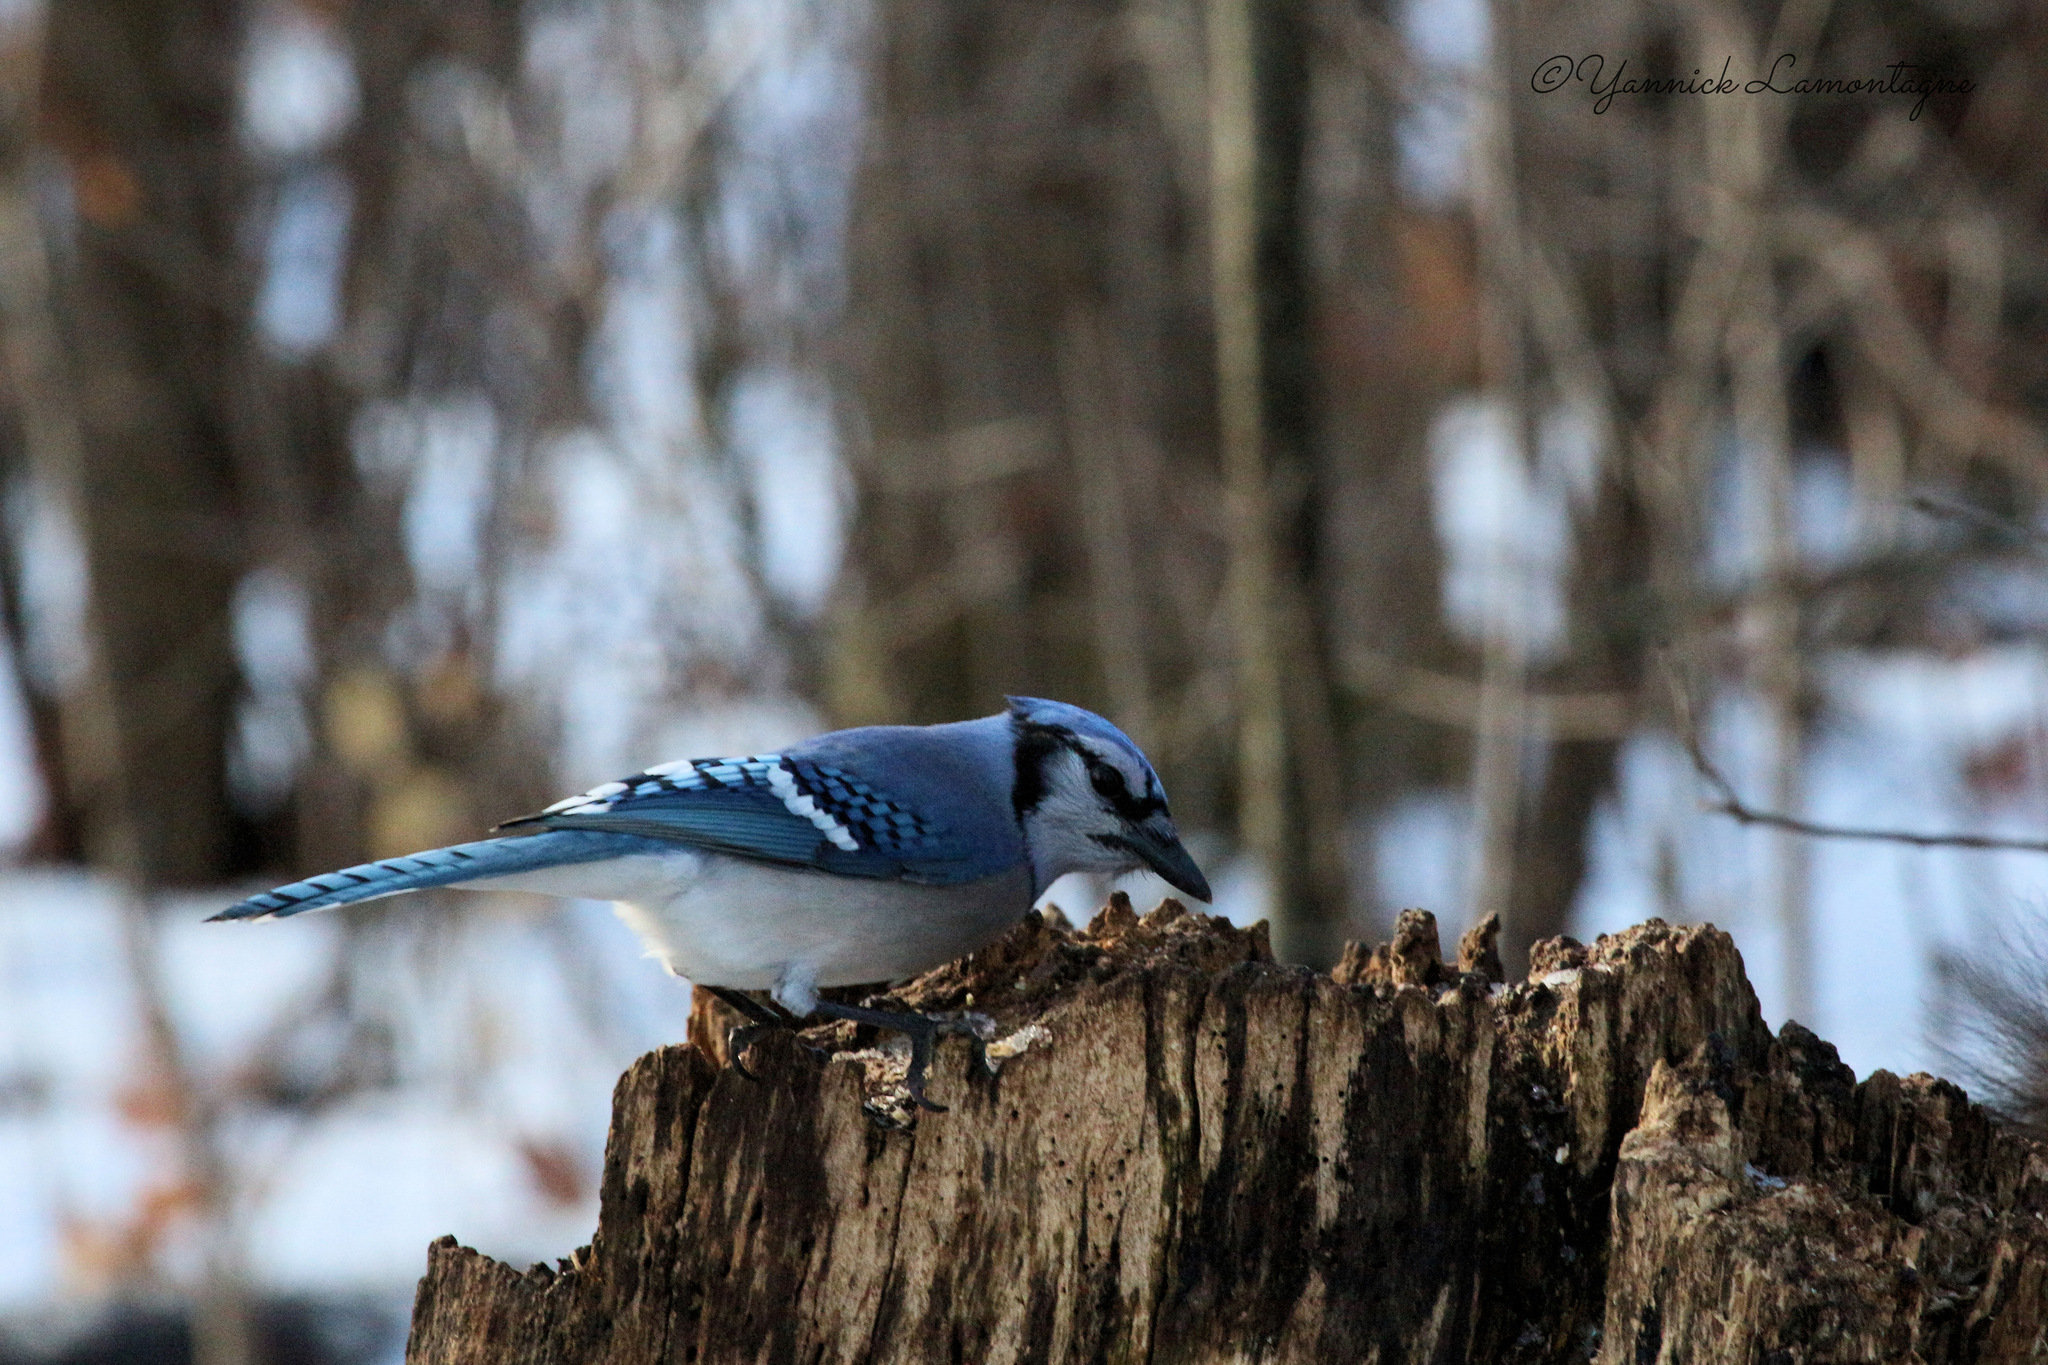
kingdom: Animalia
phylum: Chordata
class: Aves
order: Passeriformes
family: Corvidae
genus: Cyanocitta
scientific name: Cyanocitta cristata
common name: Blue jay
